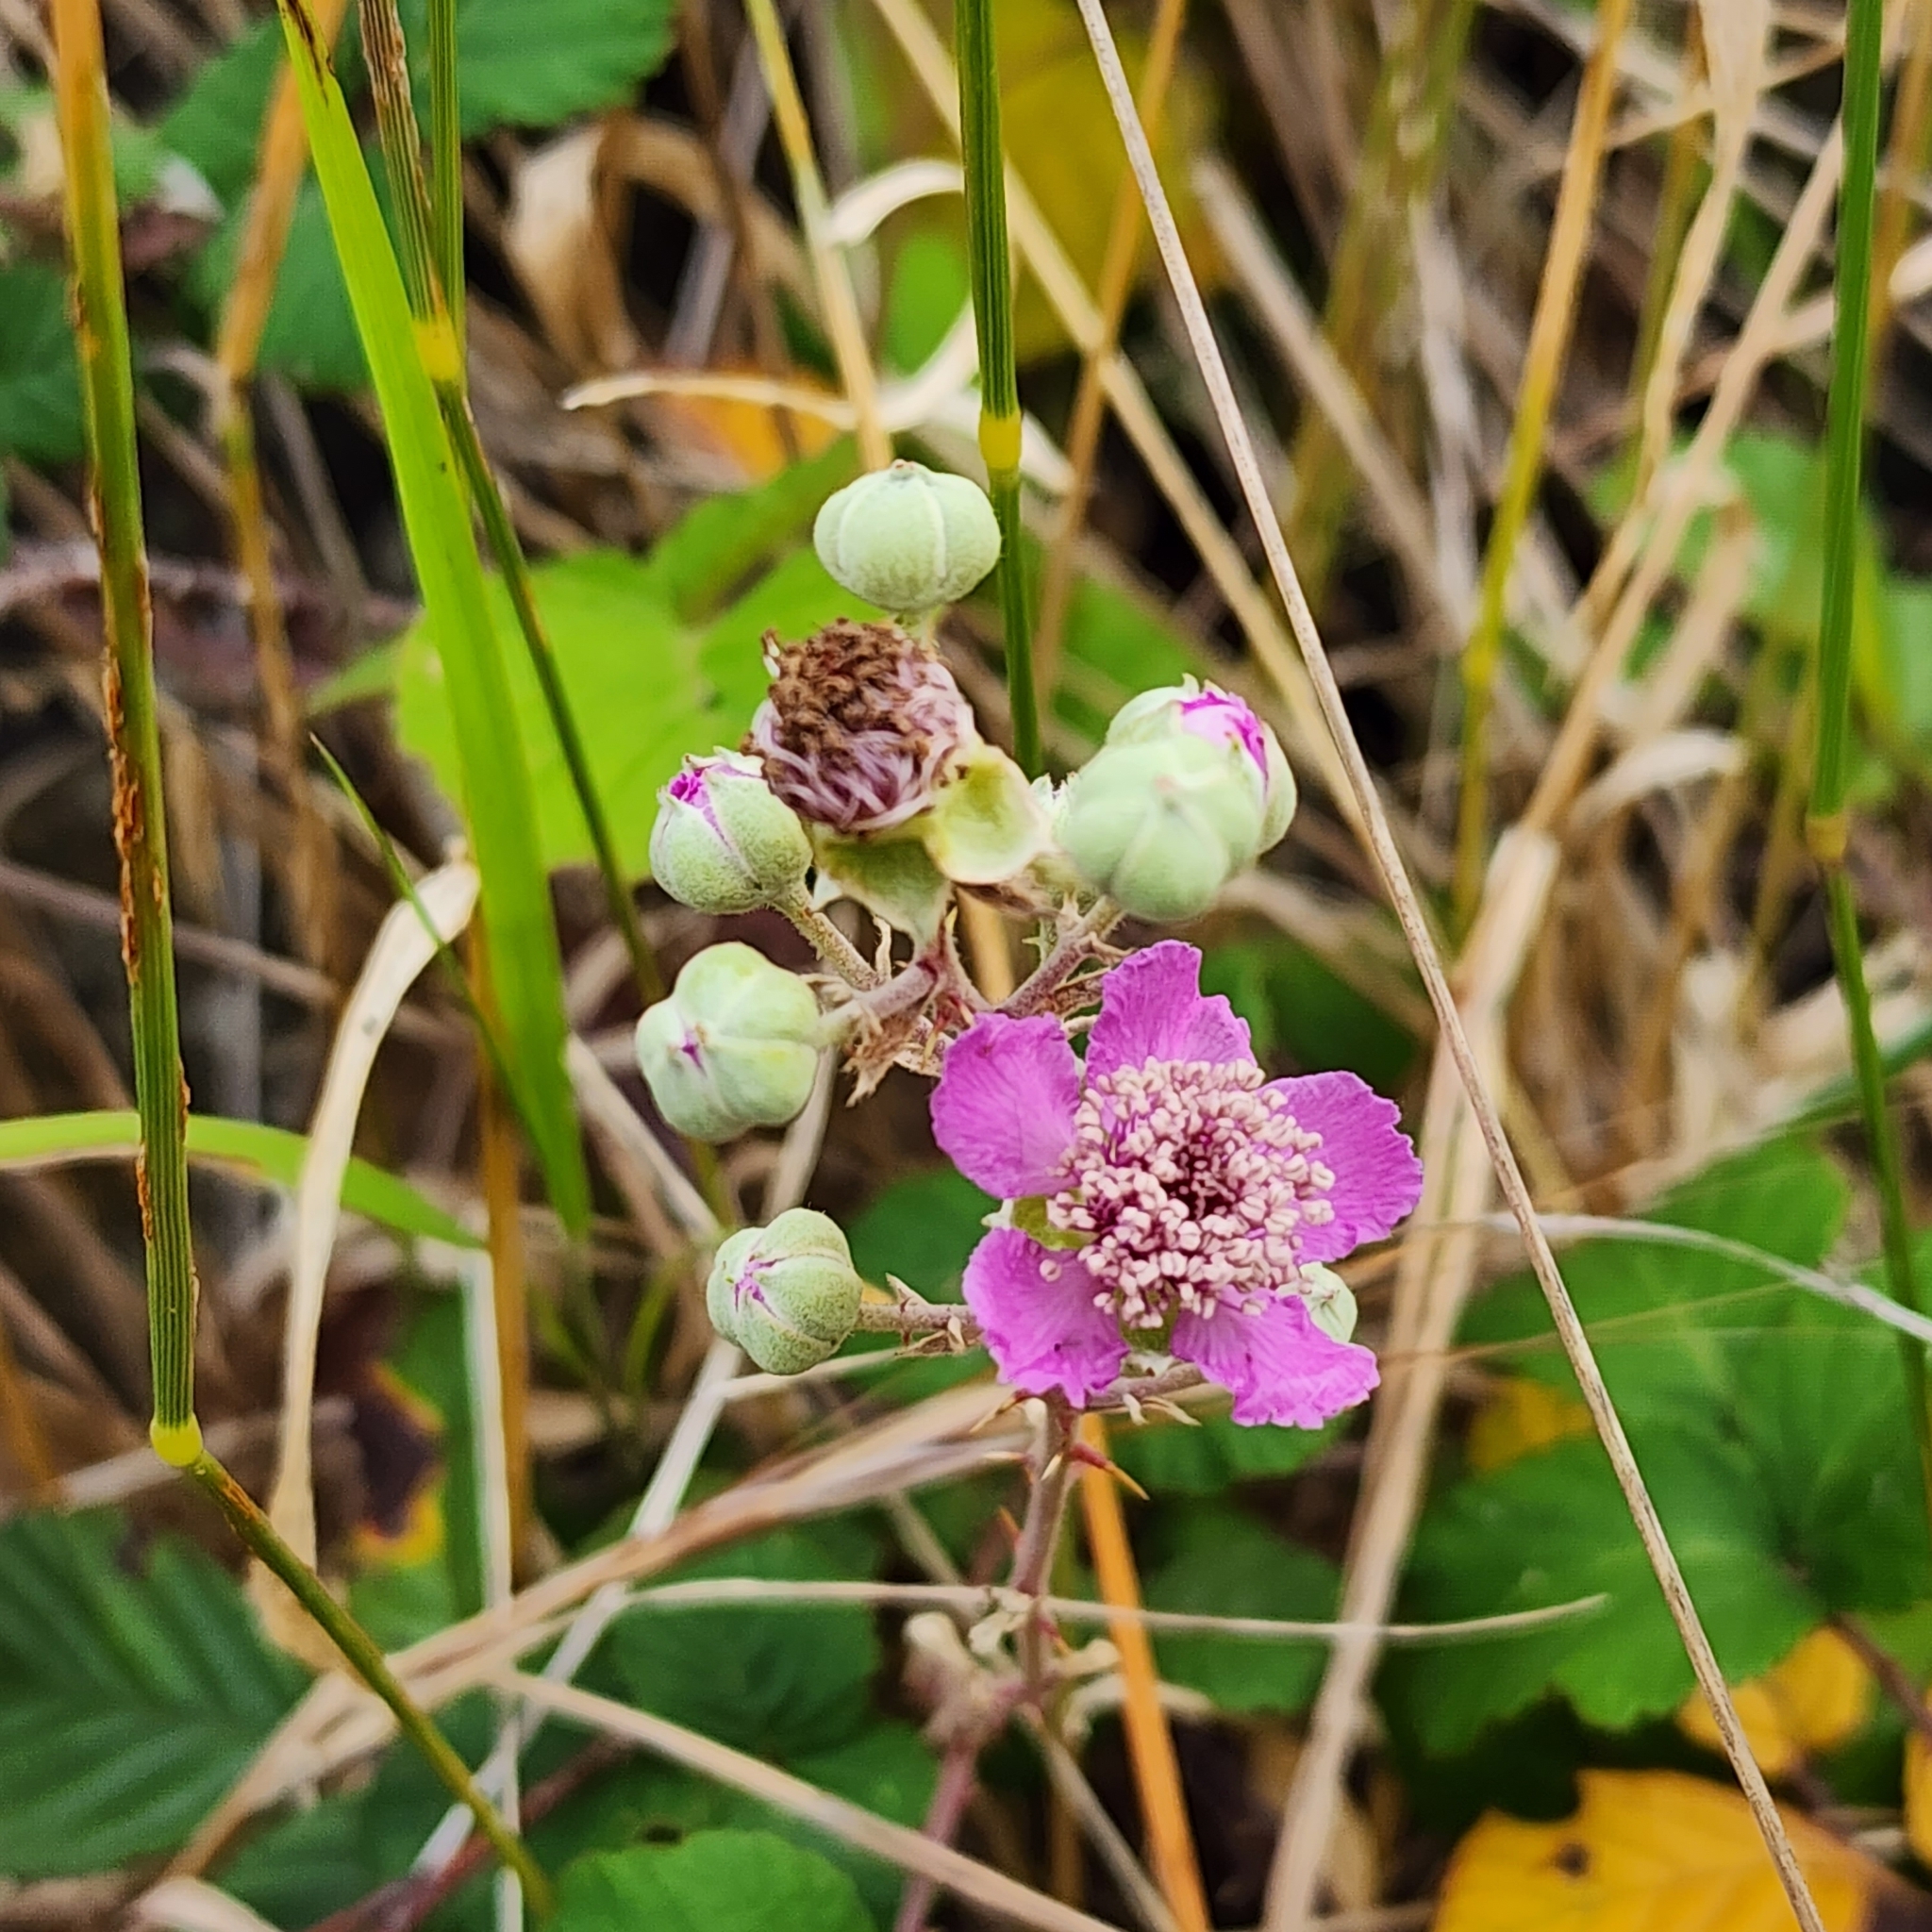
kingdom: Plantae
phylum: Tracheophyta
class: Magnoliopsida
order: Rosales
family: Rosaceae
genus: Rubus
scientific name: Rubus parvifolius
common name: Threeleaf blackberry
